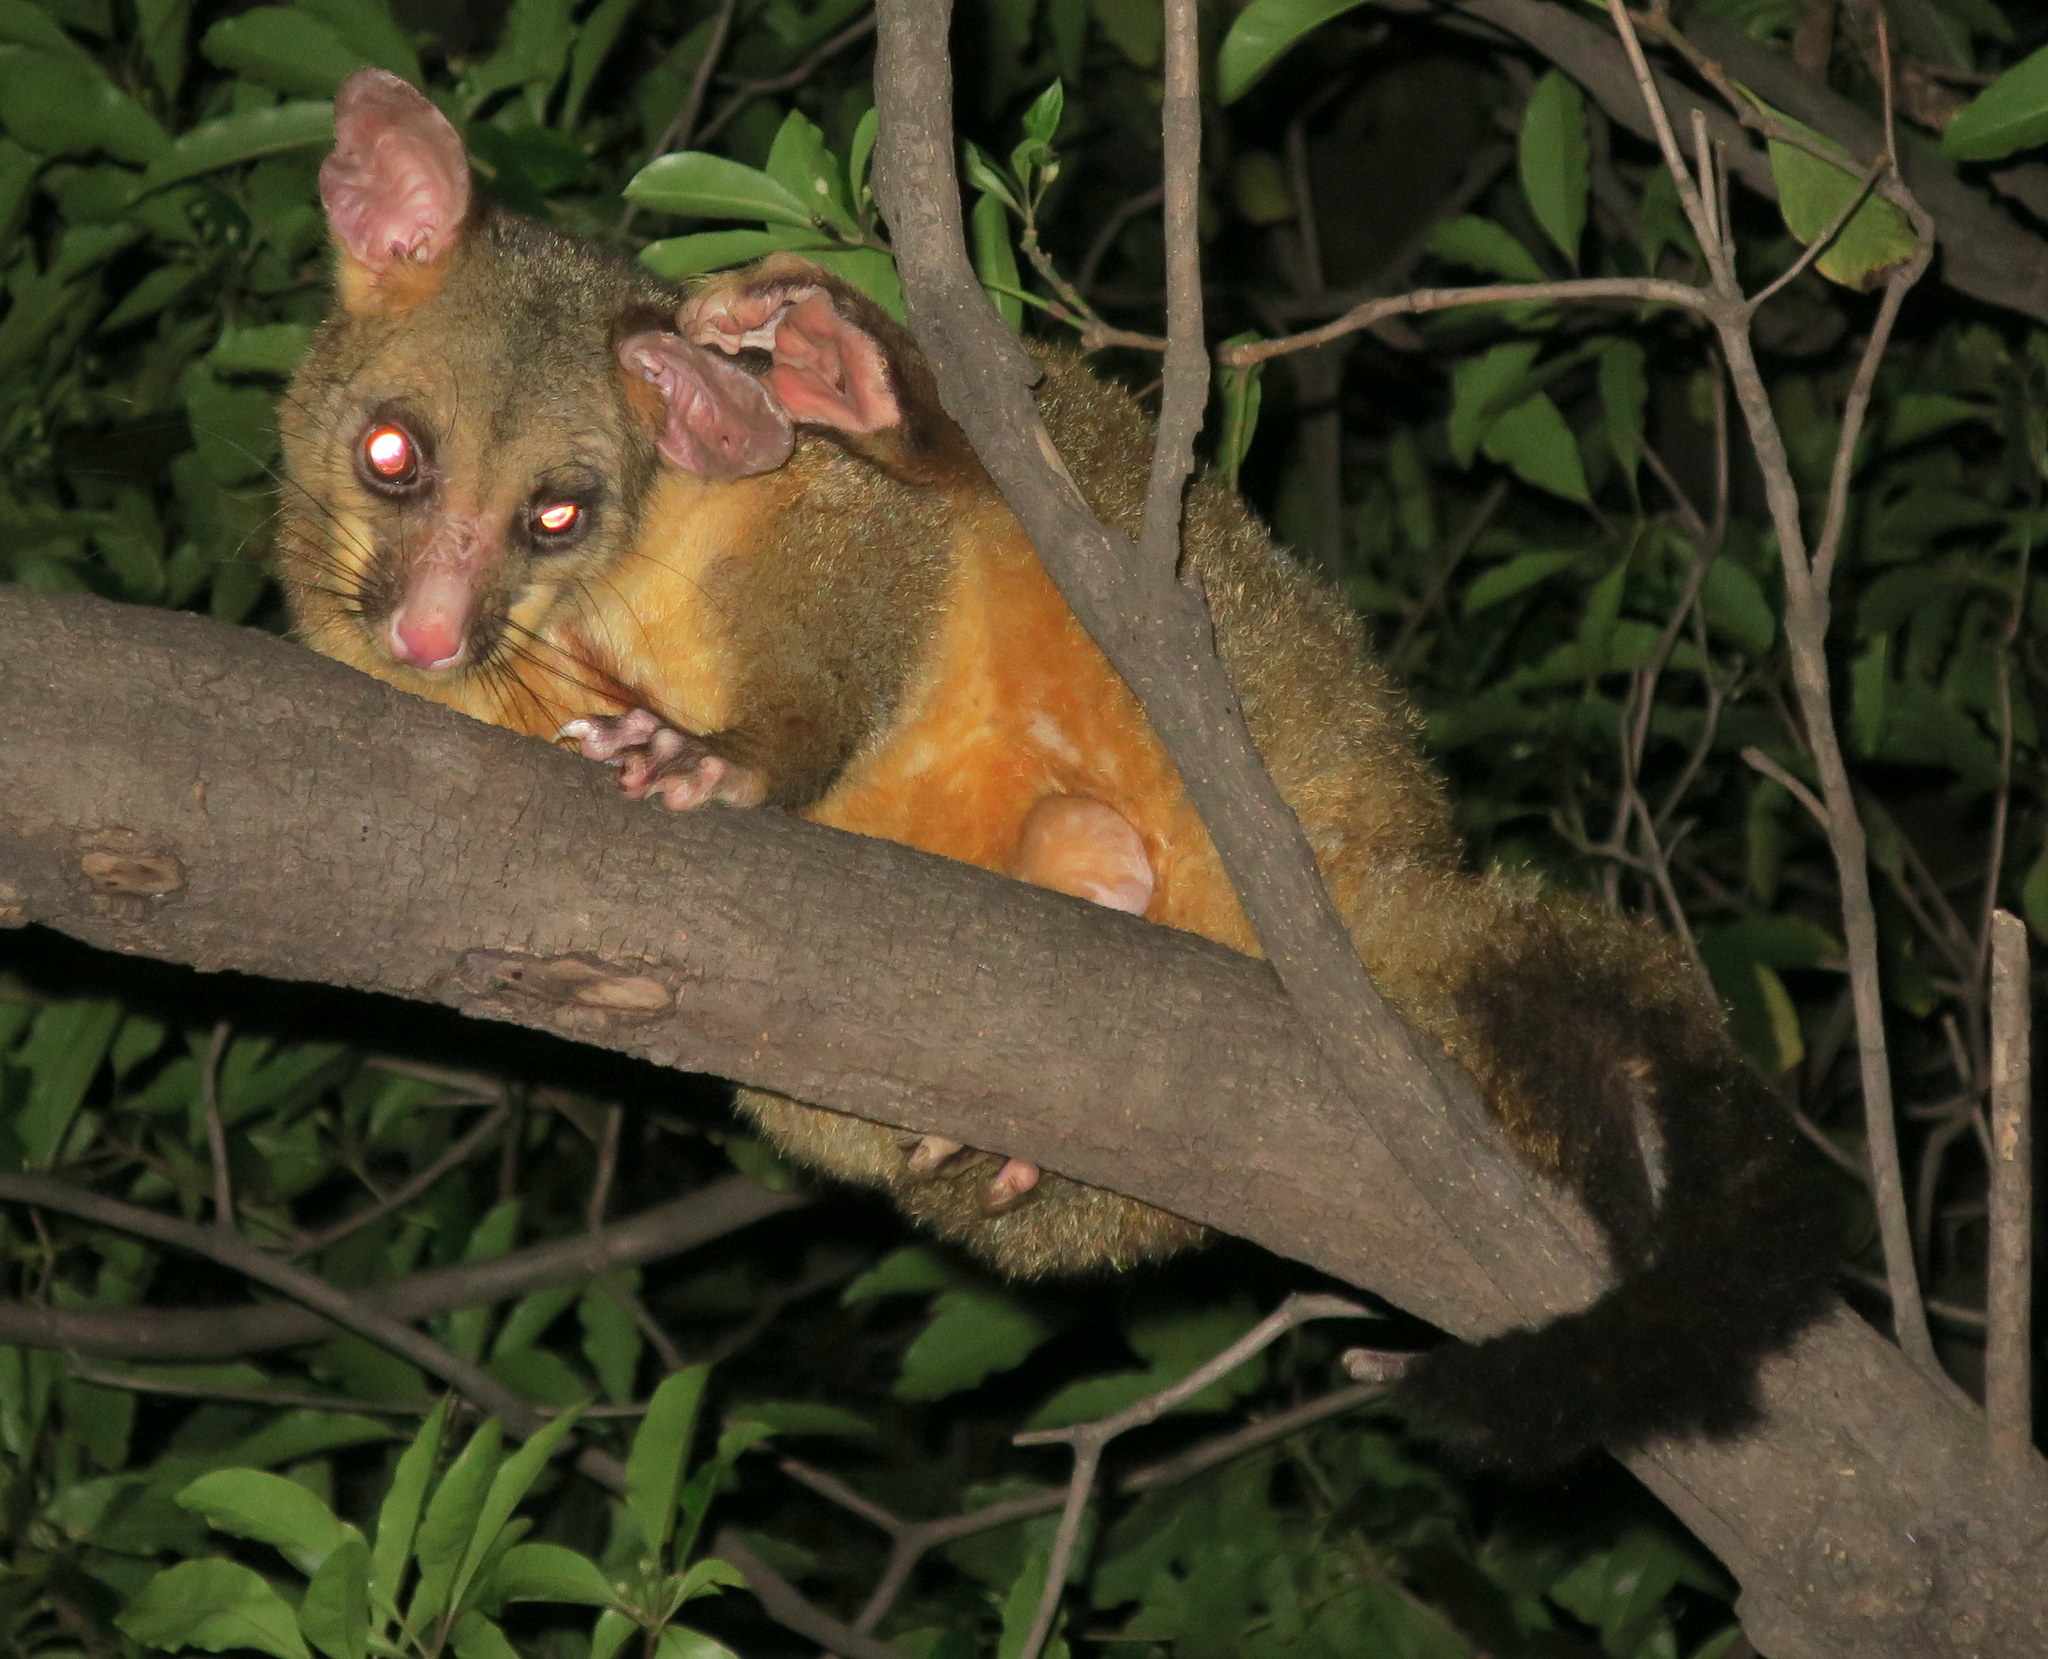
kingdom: Animalia
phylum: Chordata
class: Mammalia
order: Diprotodontia
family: Phalangeridae
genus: Trichosurus
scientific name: Trichosurus vulpecula
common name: Common brushtail
